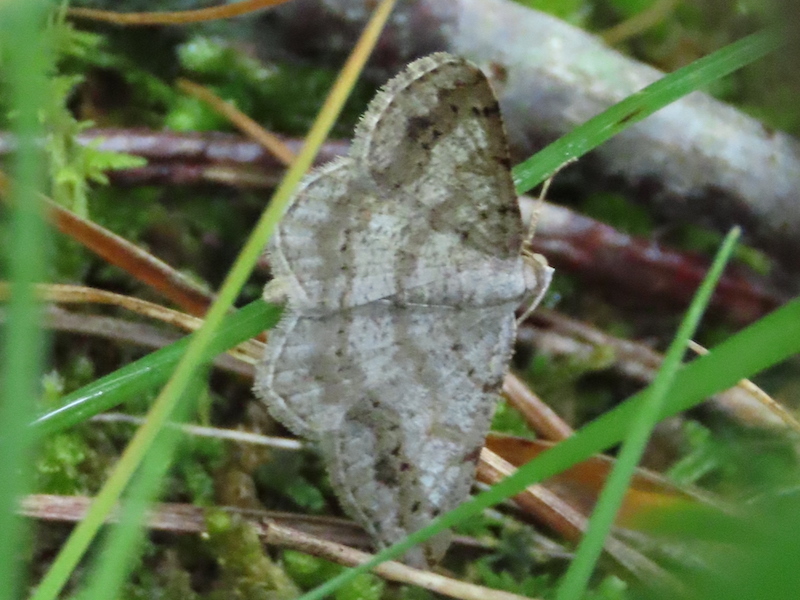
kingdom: Animalia
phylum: Arthropoda
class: Insecta
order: Lepidoptera
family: Geometridae
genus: Digrammia
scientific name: Digrammia ocellinata
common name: Faint-spotted angle
